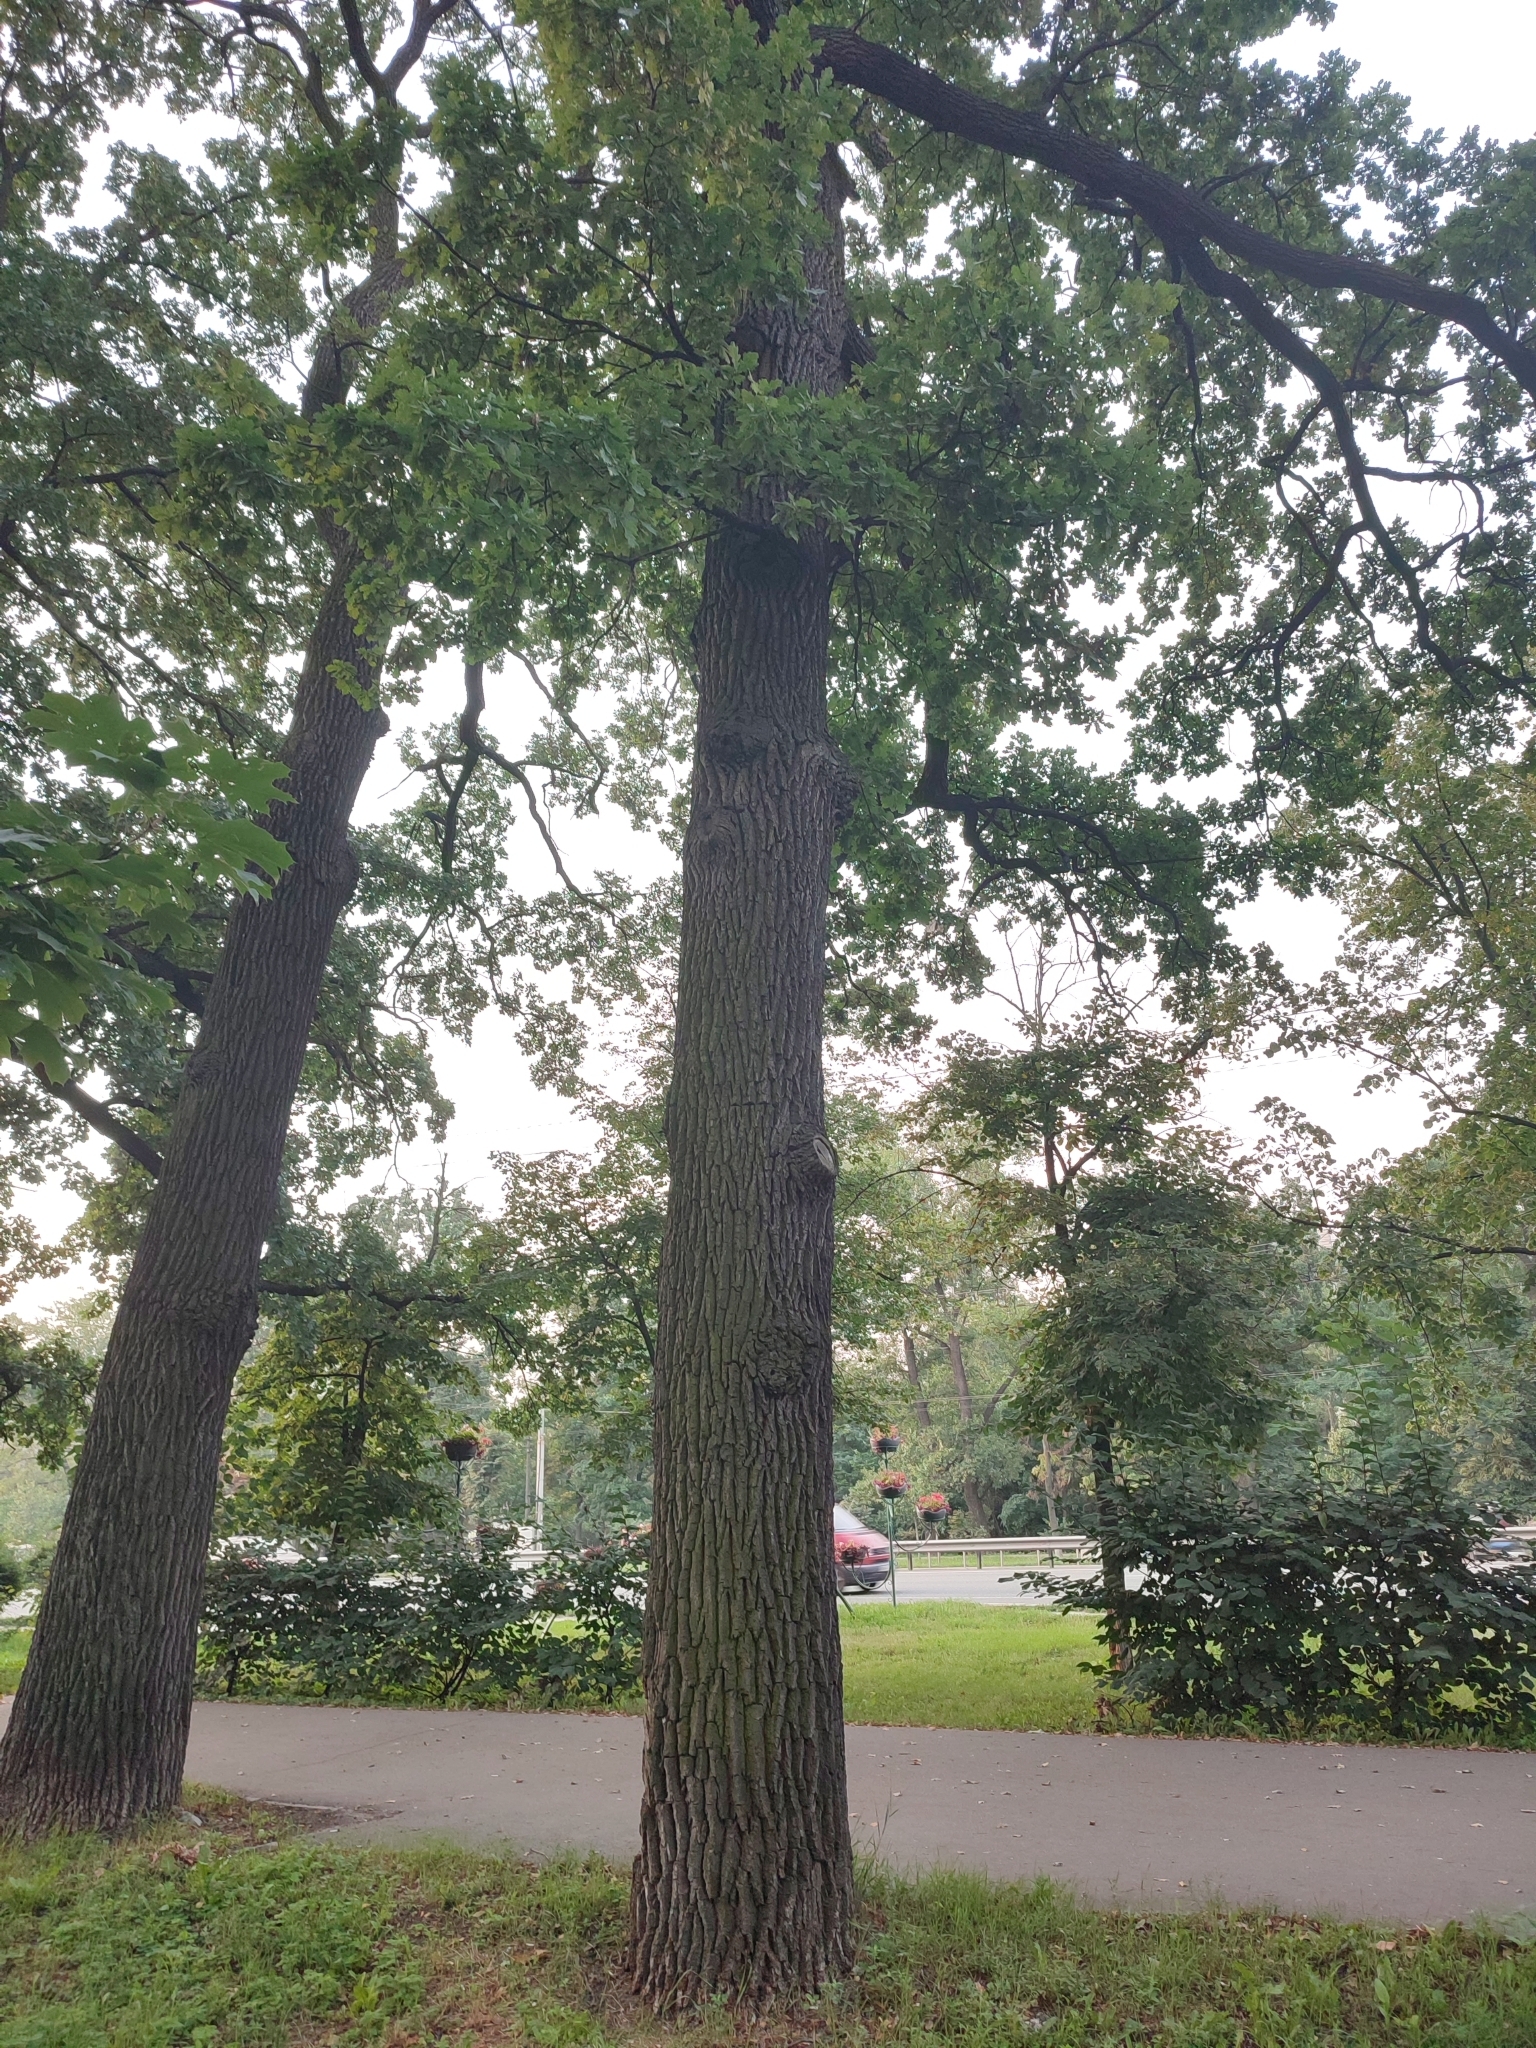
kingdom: Plantae
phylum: Tracheophyta
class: Magnoliopsida
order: Fagales
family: Fagaceae
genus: Quercus
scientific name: Quercus robur
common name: Pedunculate oak
